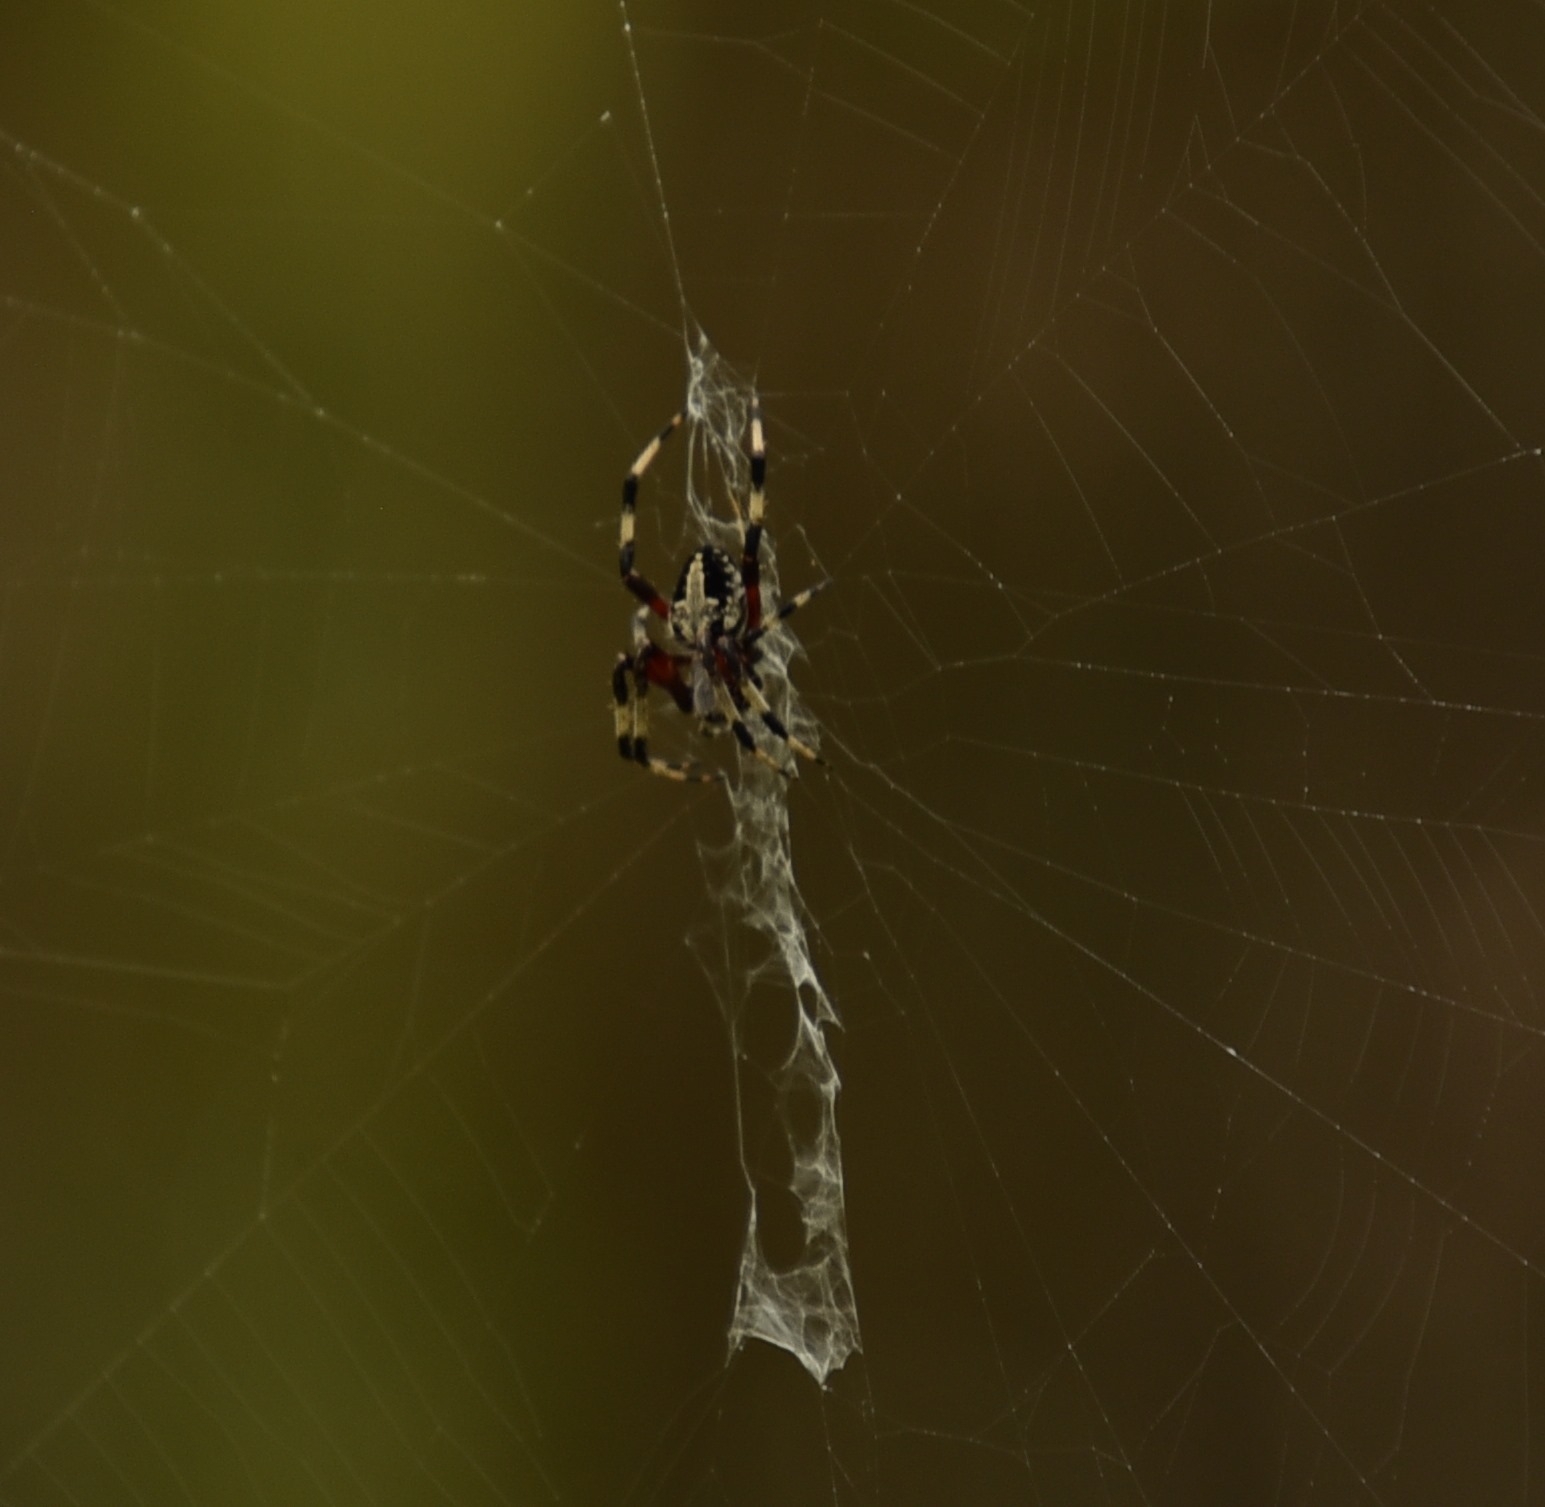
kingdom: Animalia
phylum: Arthropoda
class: Arachnida
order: Araneae
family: Araneidae
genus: Neoscona
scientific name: Neoscona domiciliorum
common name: Red-femured spotted orbweaver
